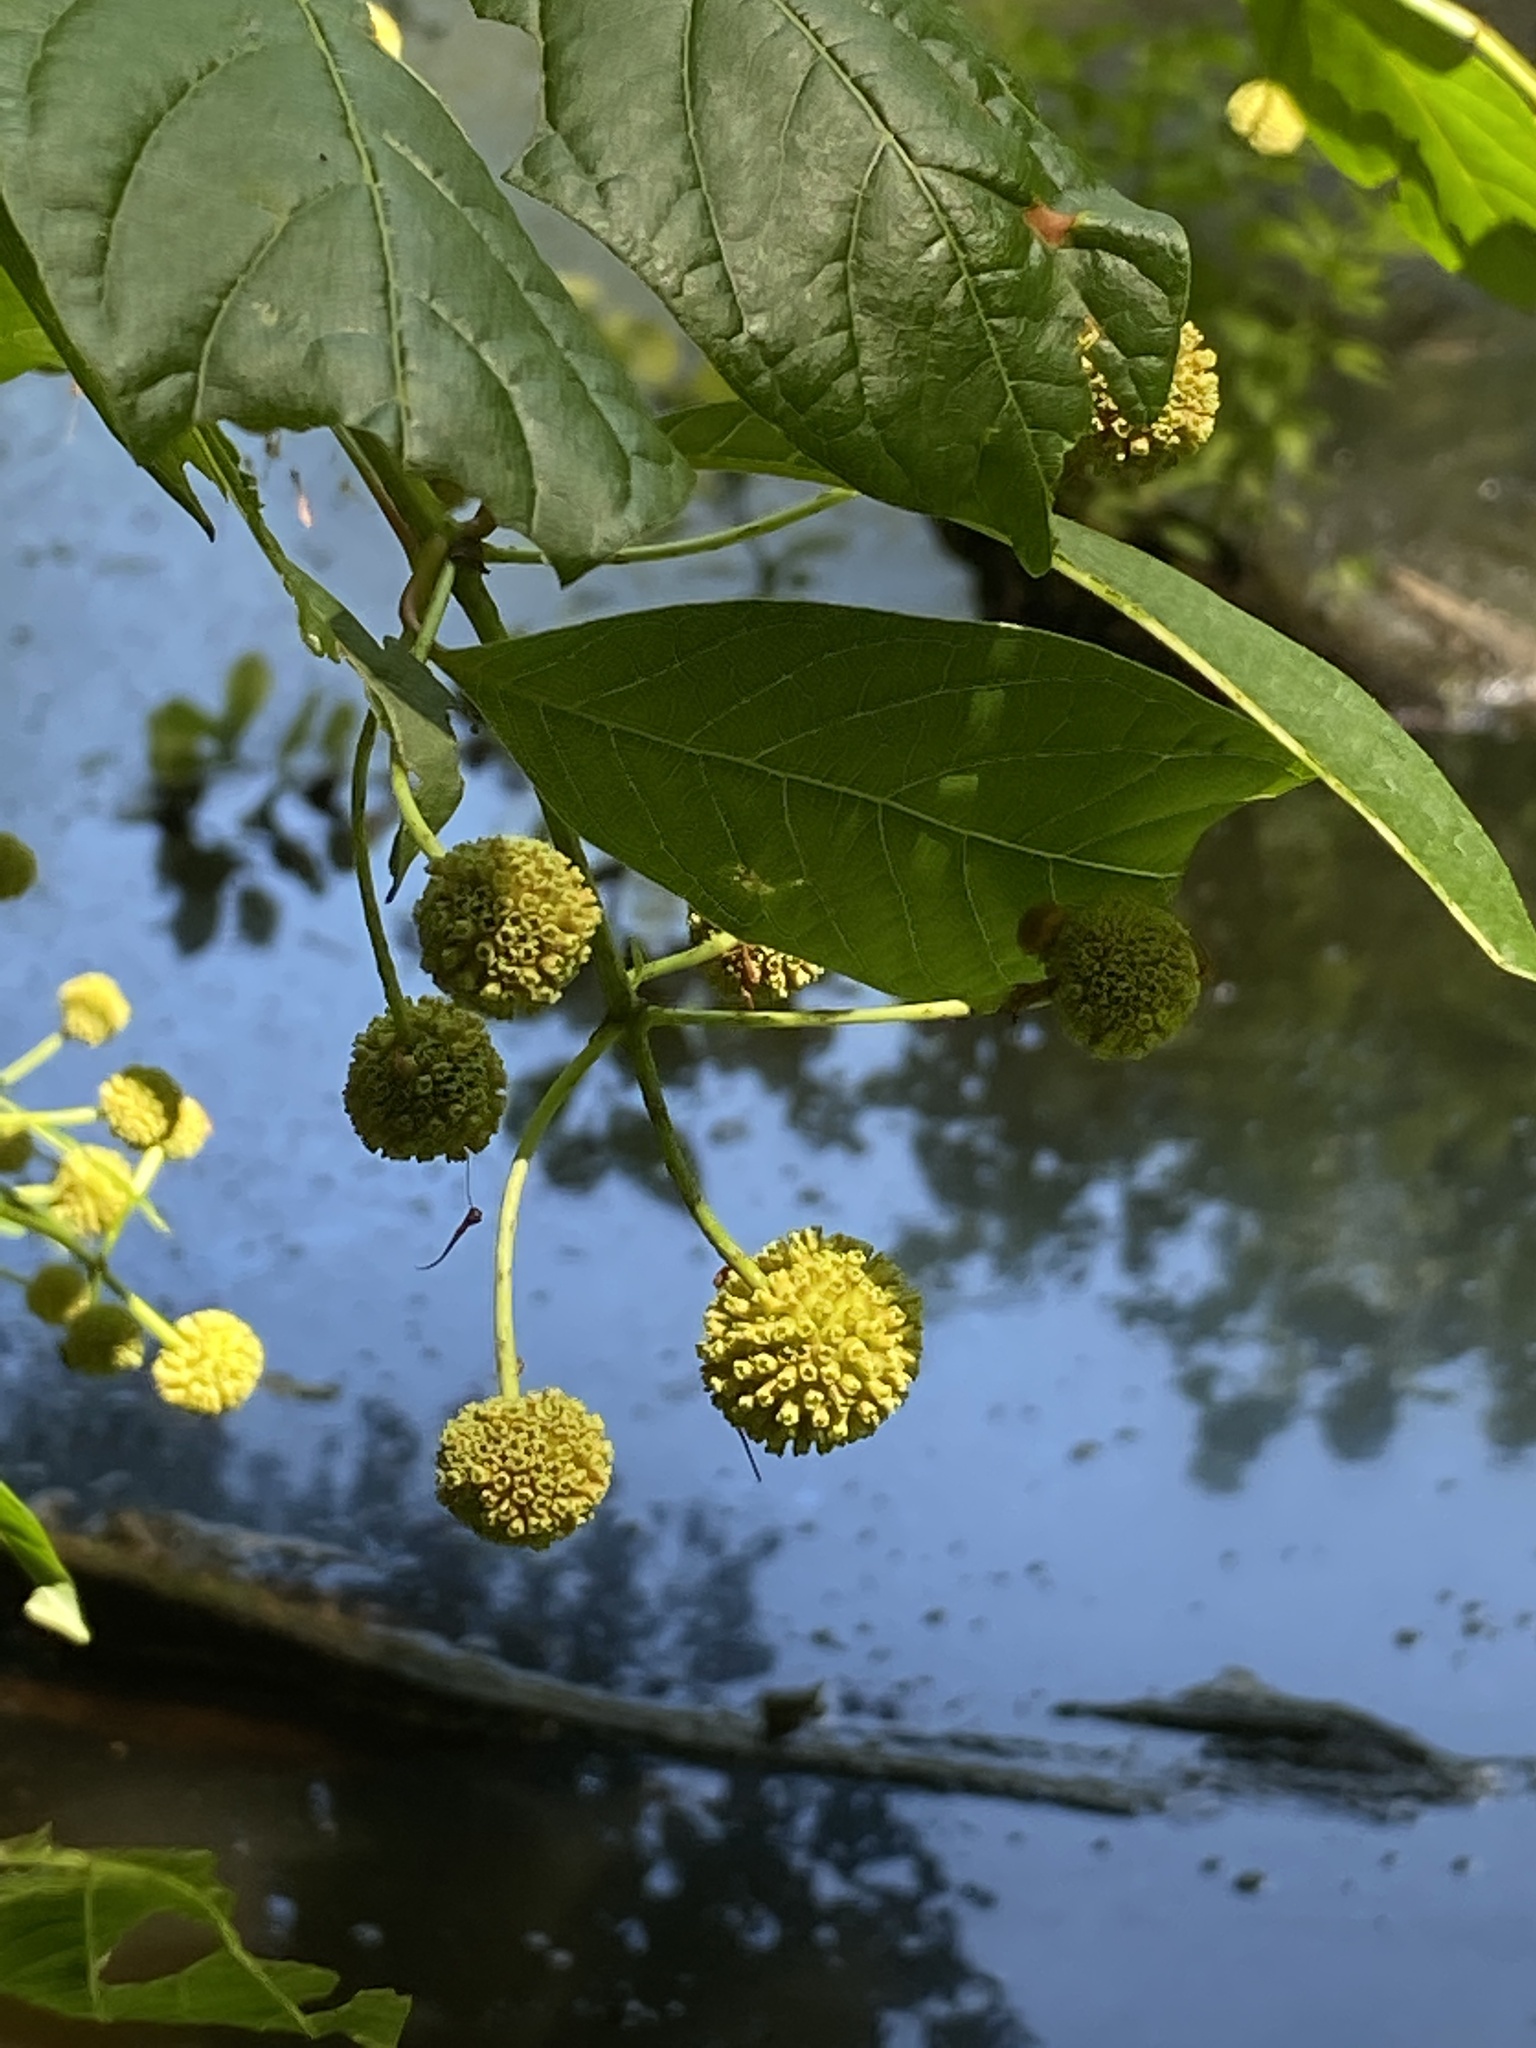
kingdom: Plantae
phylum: Tracheophyta
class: Magnoliopsida
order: Gentianales
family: Rubiaceae
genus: Cephalanthus
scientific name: Cephalanthus occidentalis
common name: Button-willow
